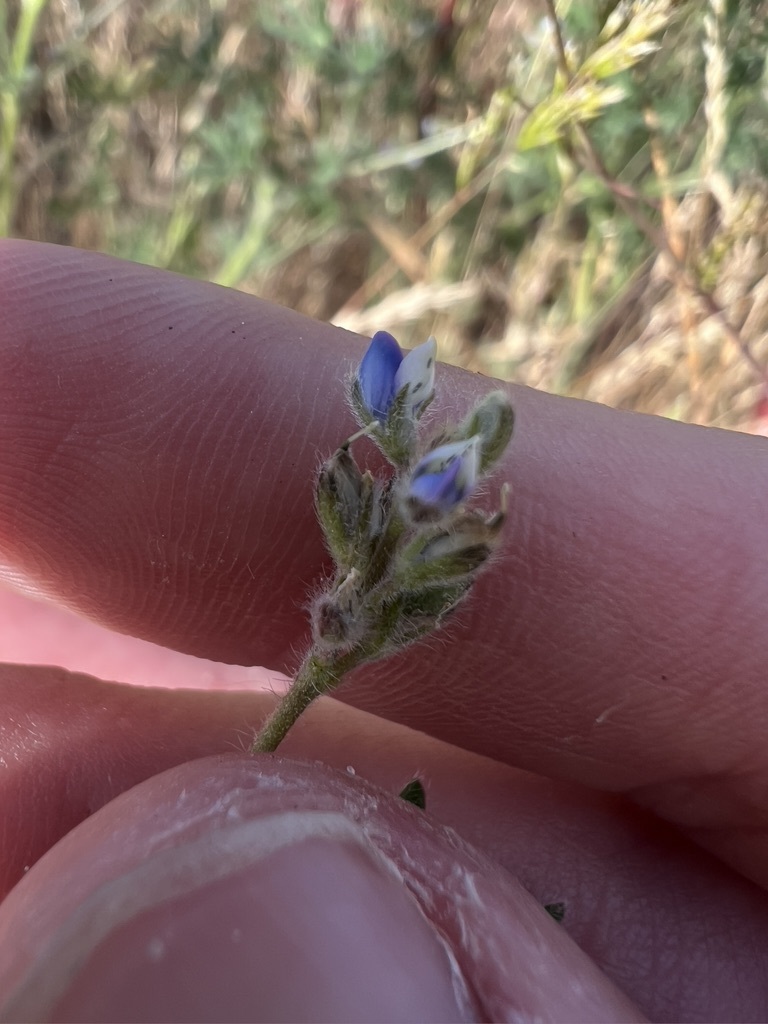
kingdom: Plantae
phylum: Tracheophyta
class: Magnoliopsida
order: Fabales
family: Fabaceae
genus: Lupinus
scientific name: Lupinus bicolor
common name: Miniature lupine
